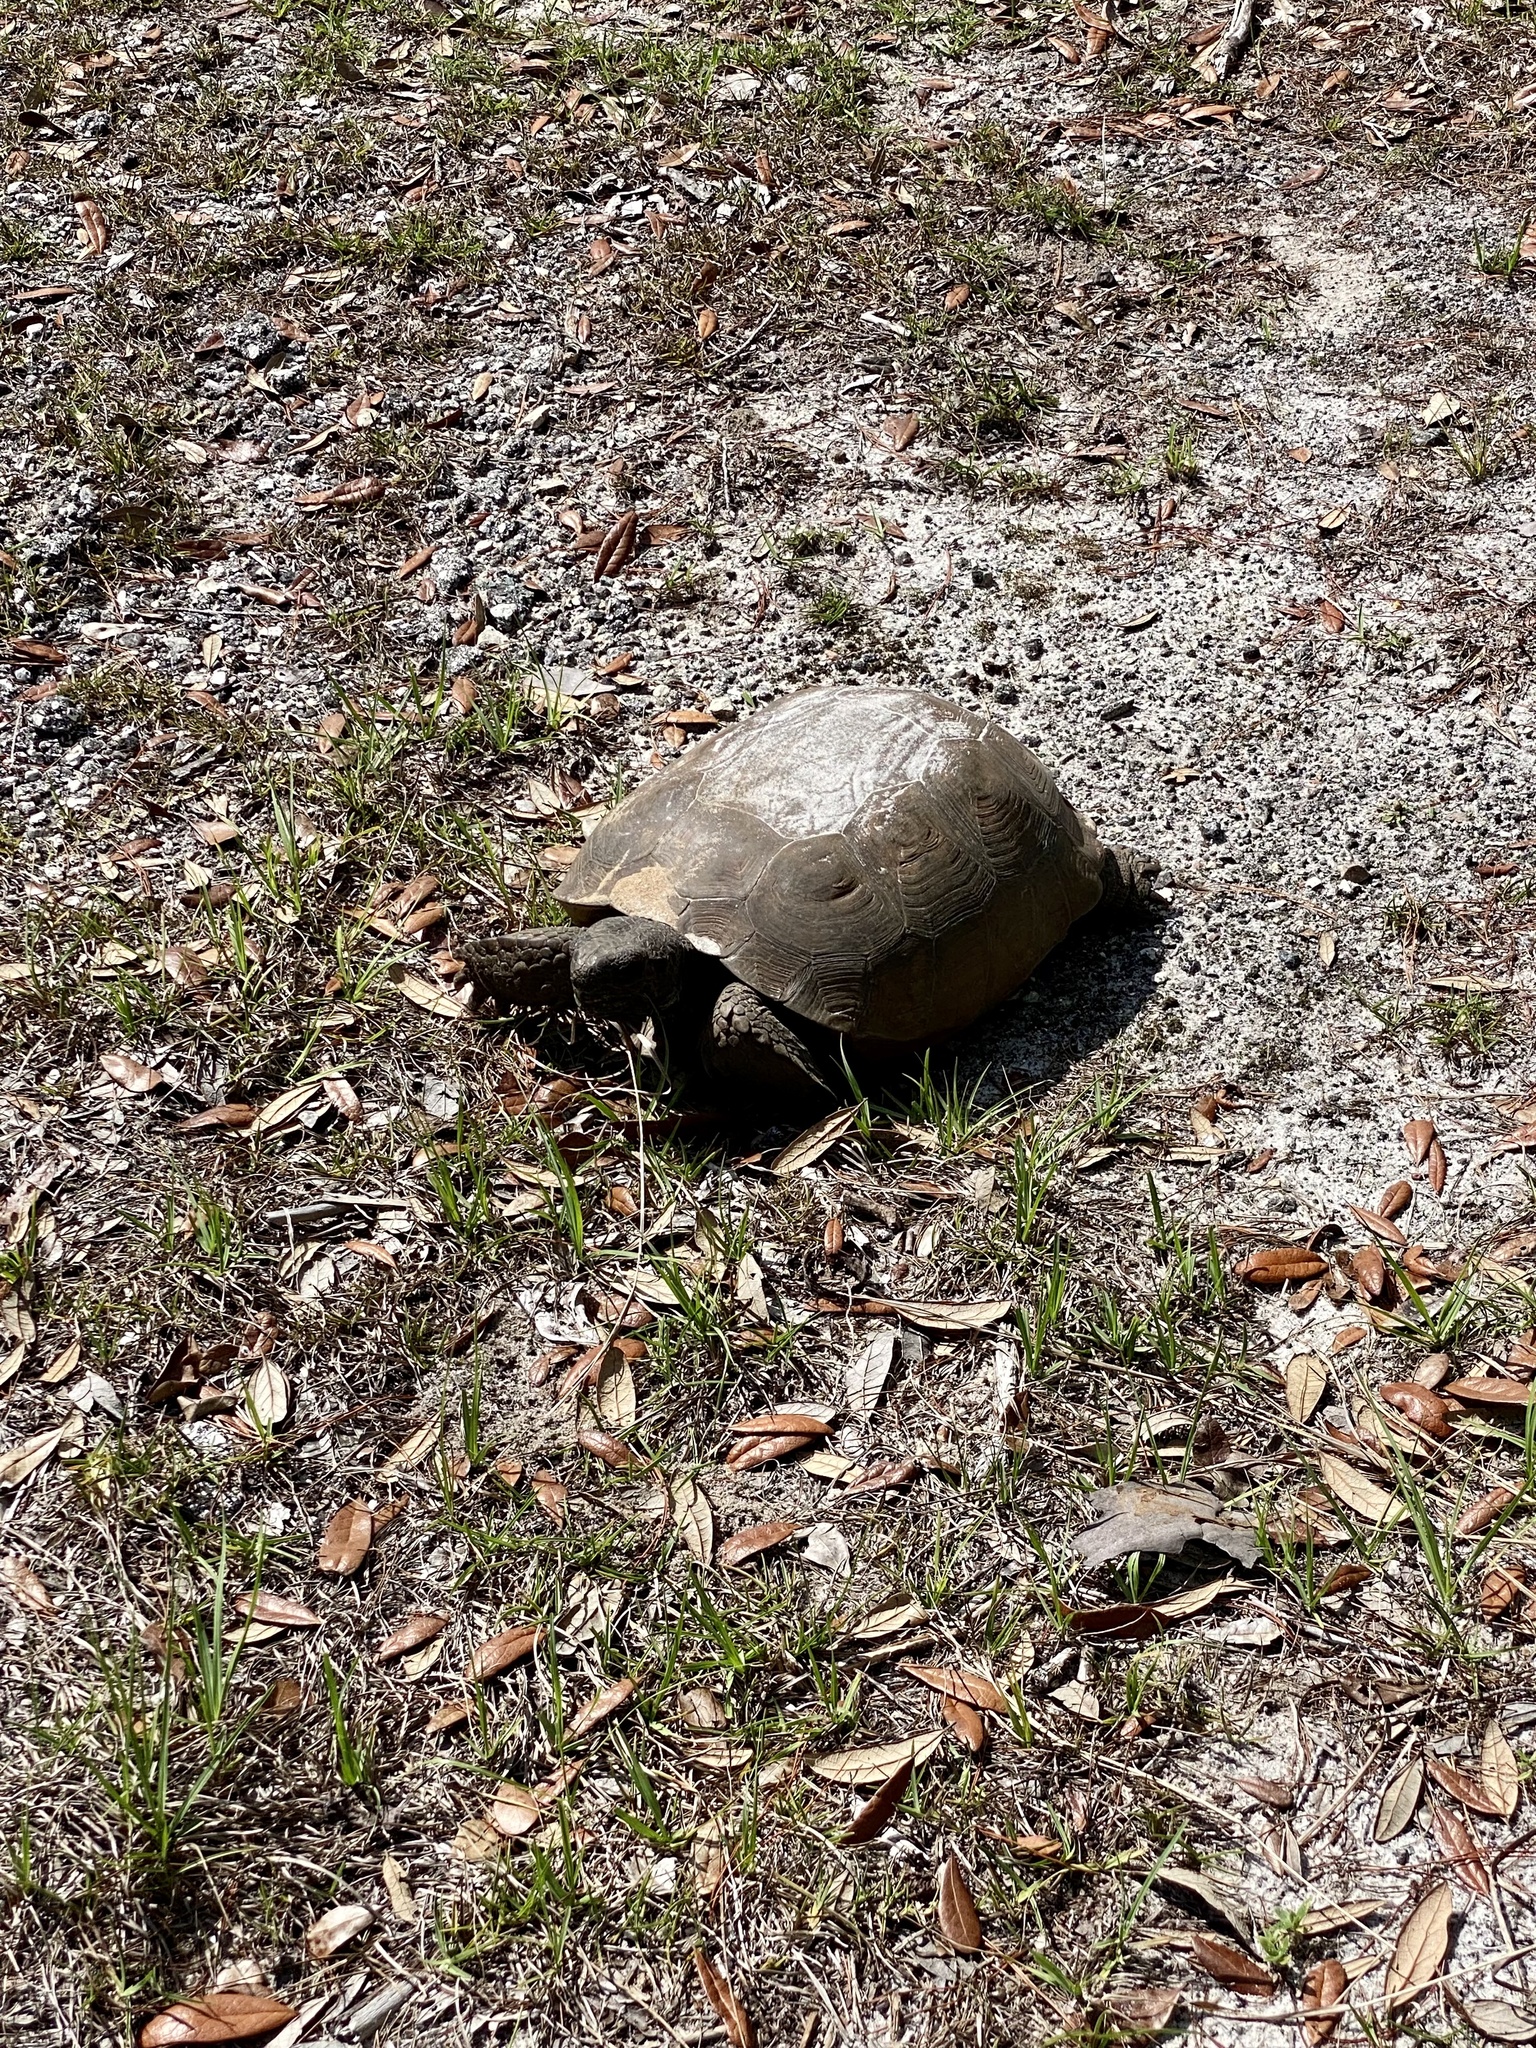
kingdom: Animalia
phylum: Chordata
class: Testudines
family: Testudinidae
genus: Gopherus
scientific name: Gopherus polyphemus
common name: Florida gopher tortoise
